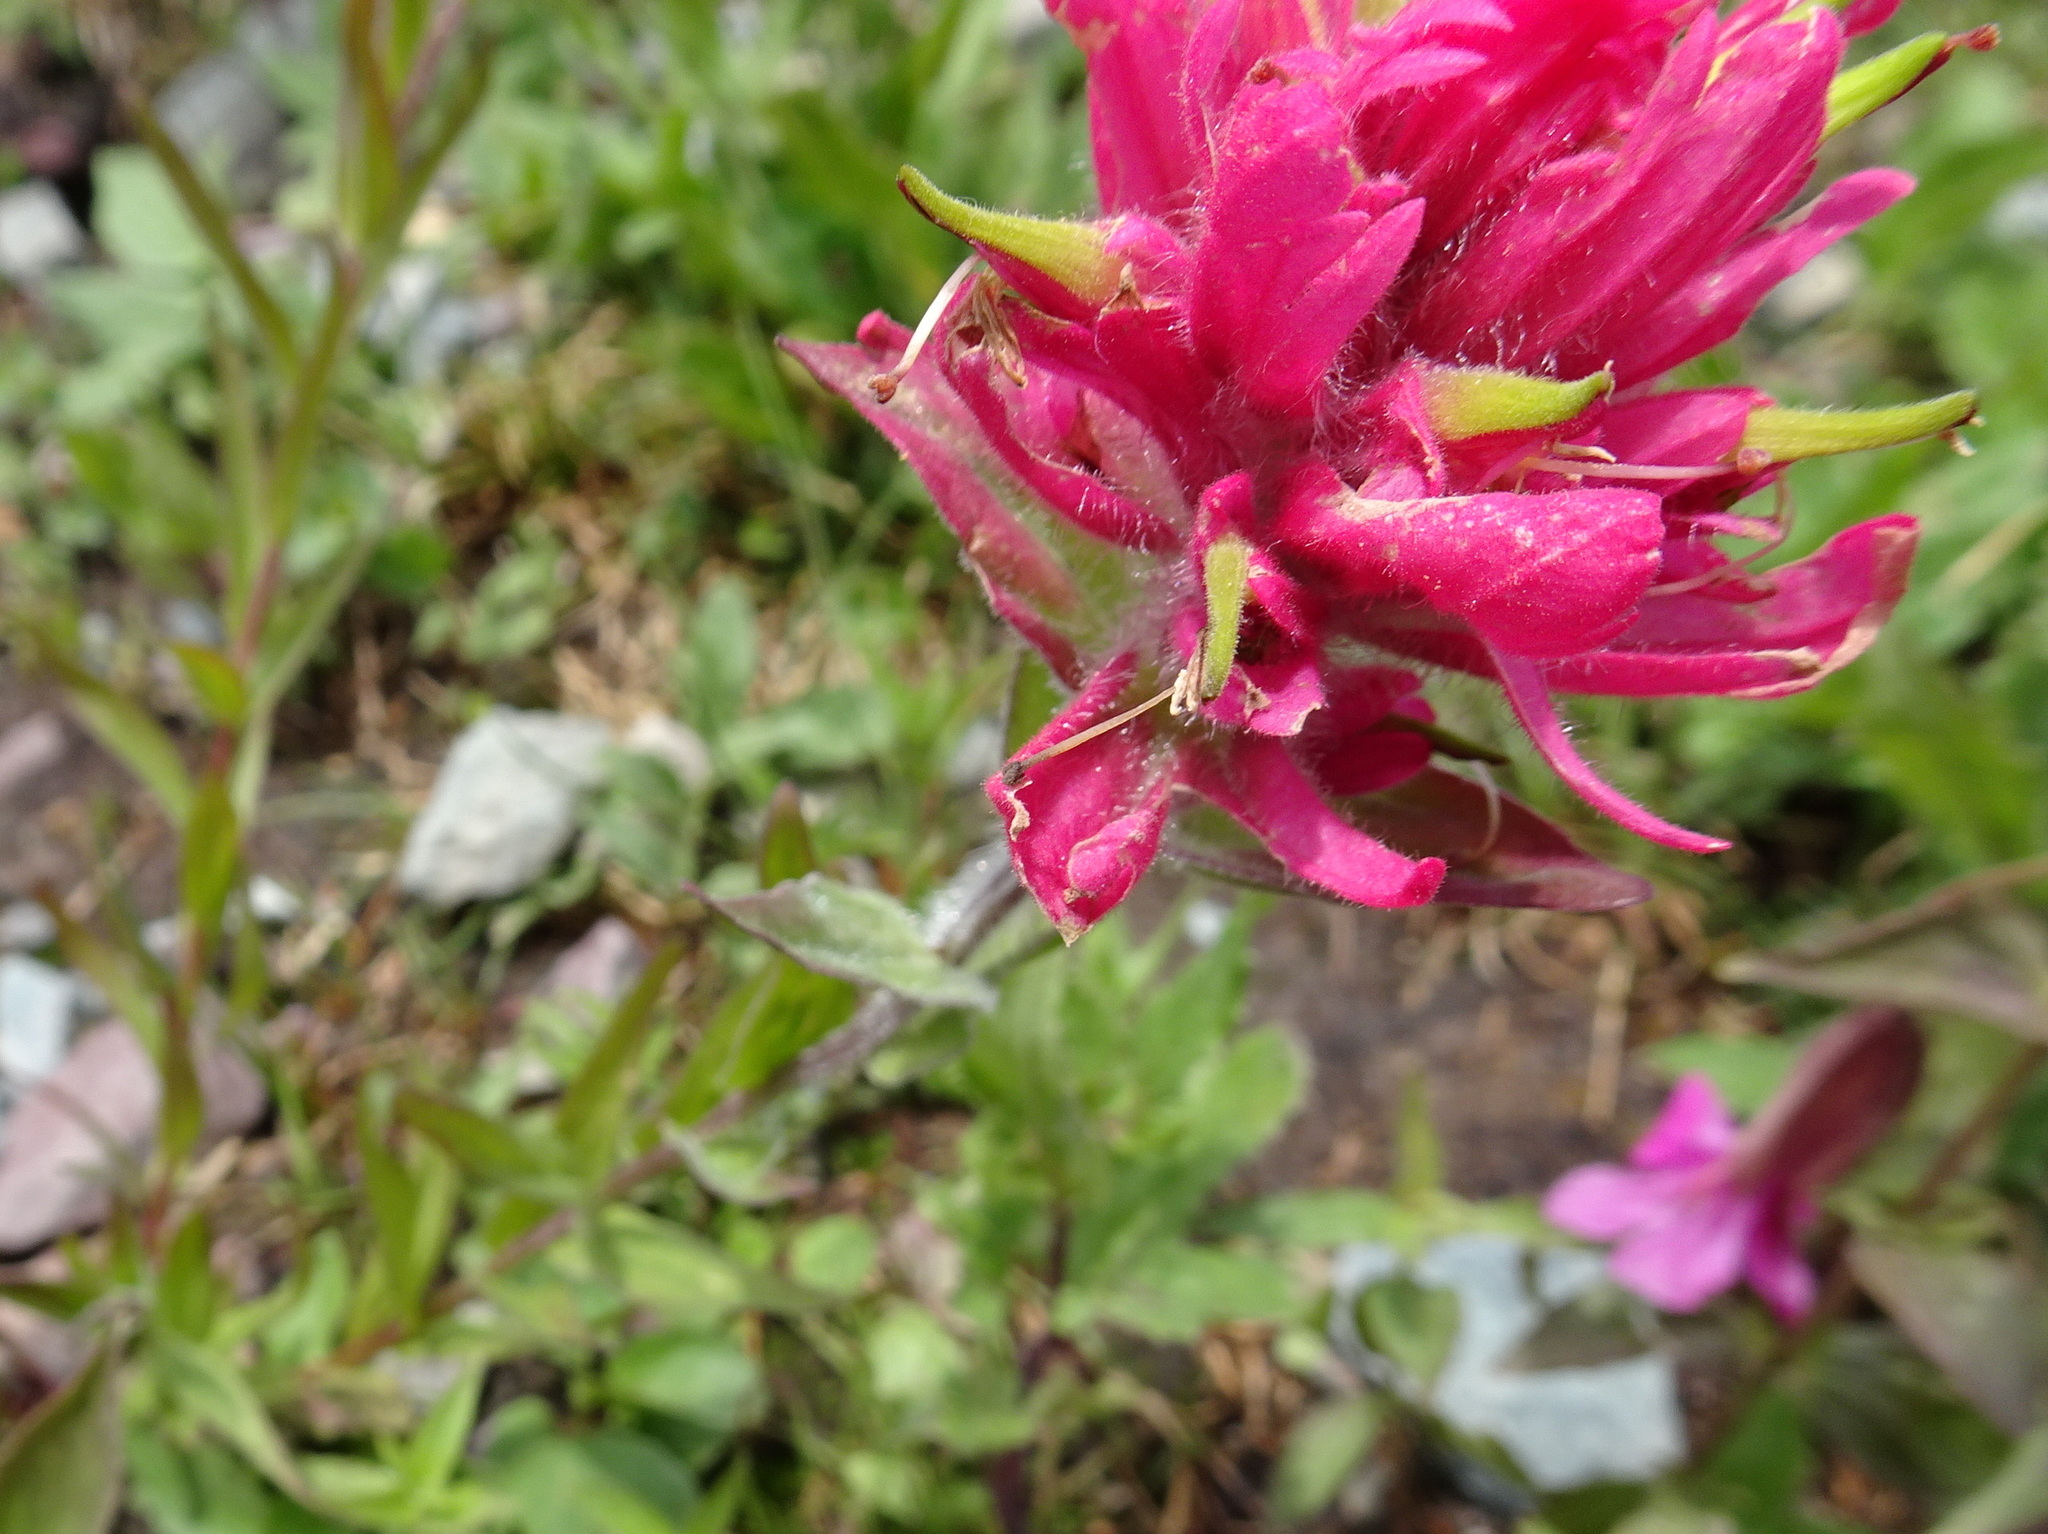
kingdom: Plantae
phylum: Tracheophyta
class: Magnoliopsida
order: Lamiales
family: Orobanchaceae
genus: Castilleja
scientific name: Castilleja rhexifolia
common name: Rocky mountain paintbrush
